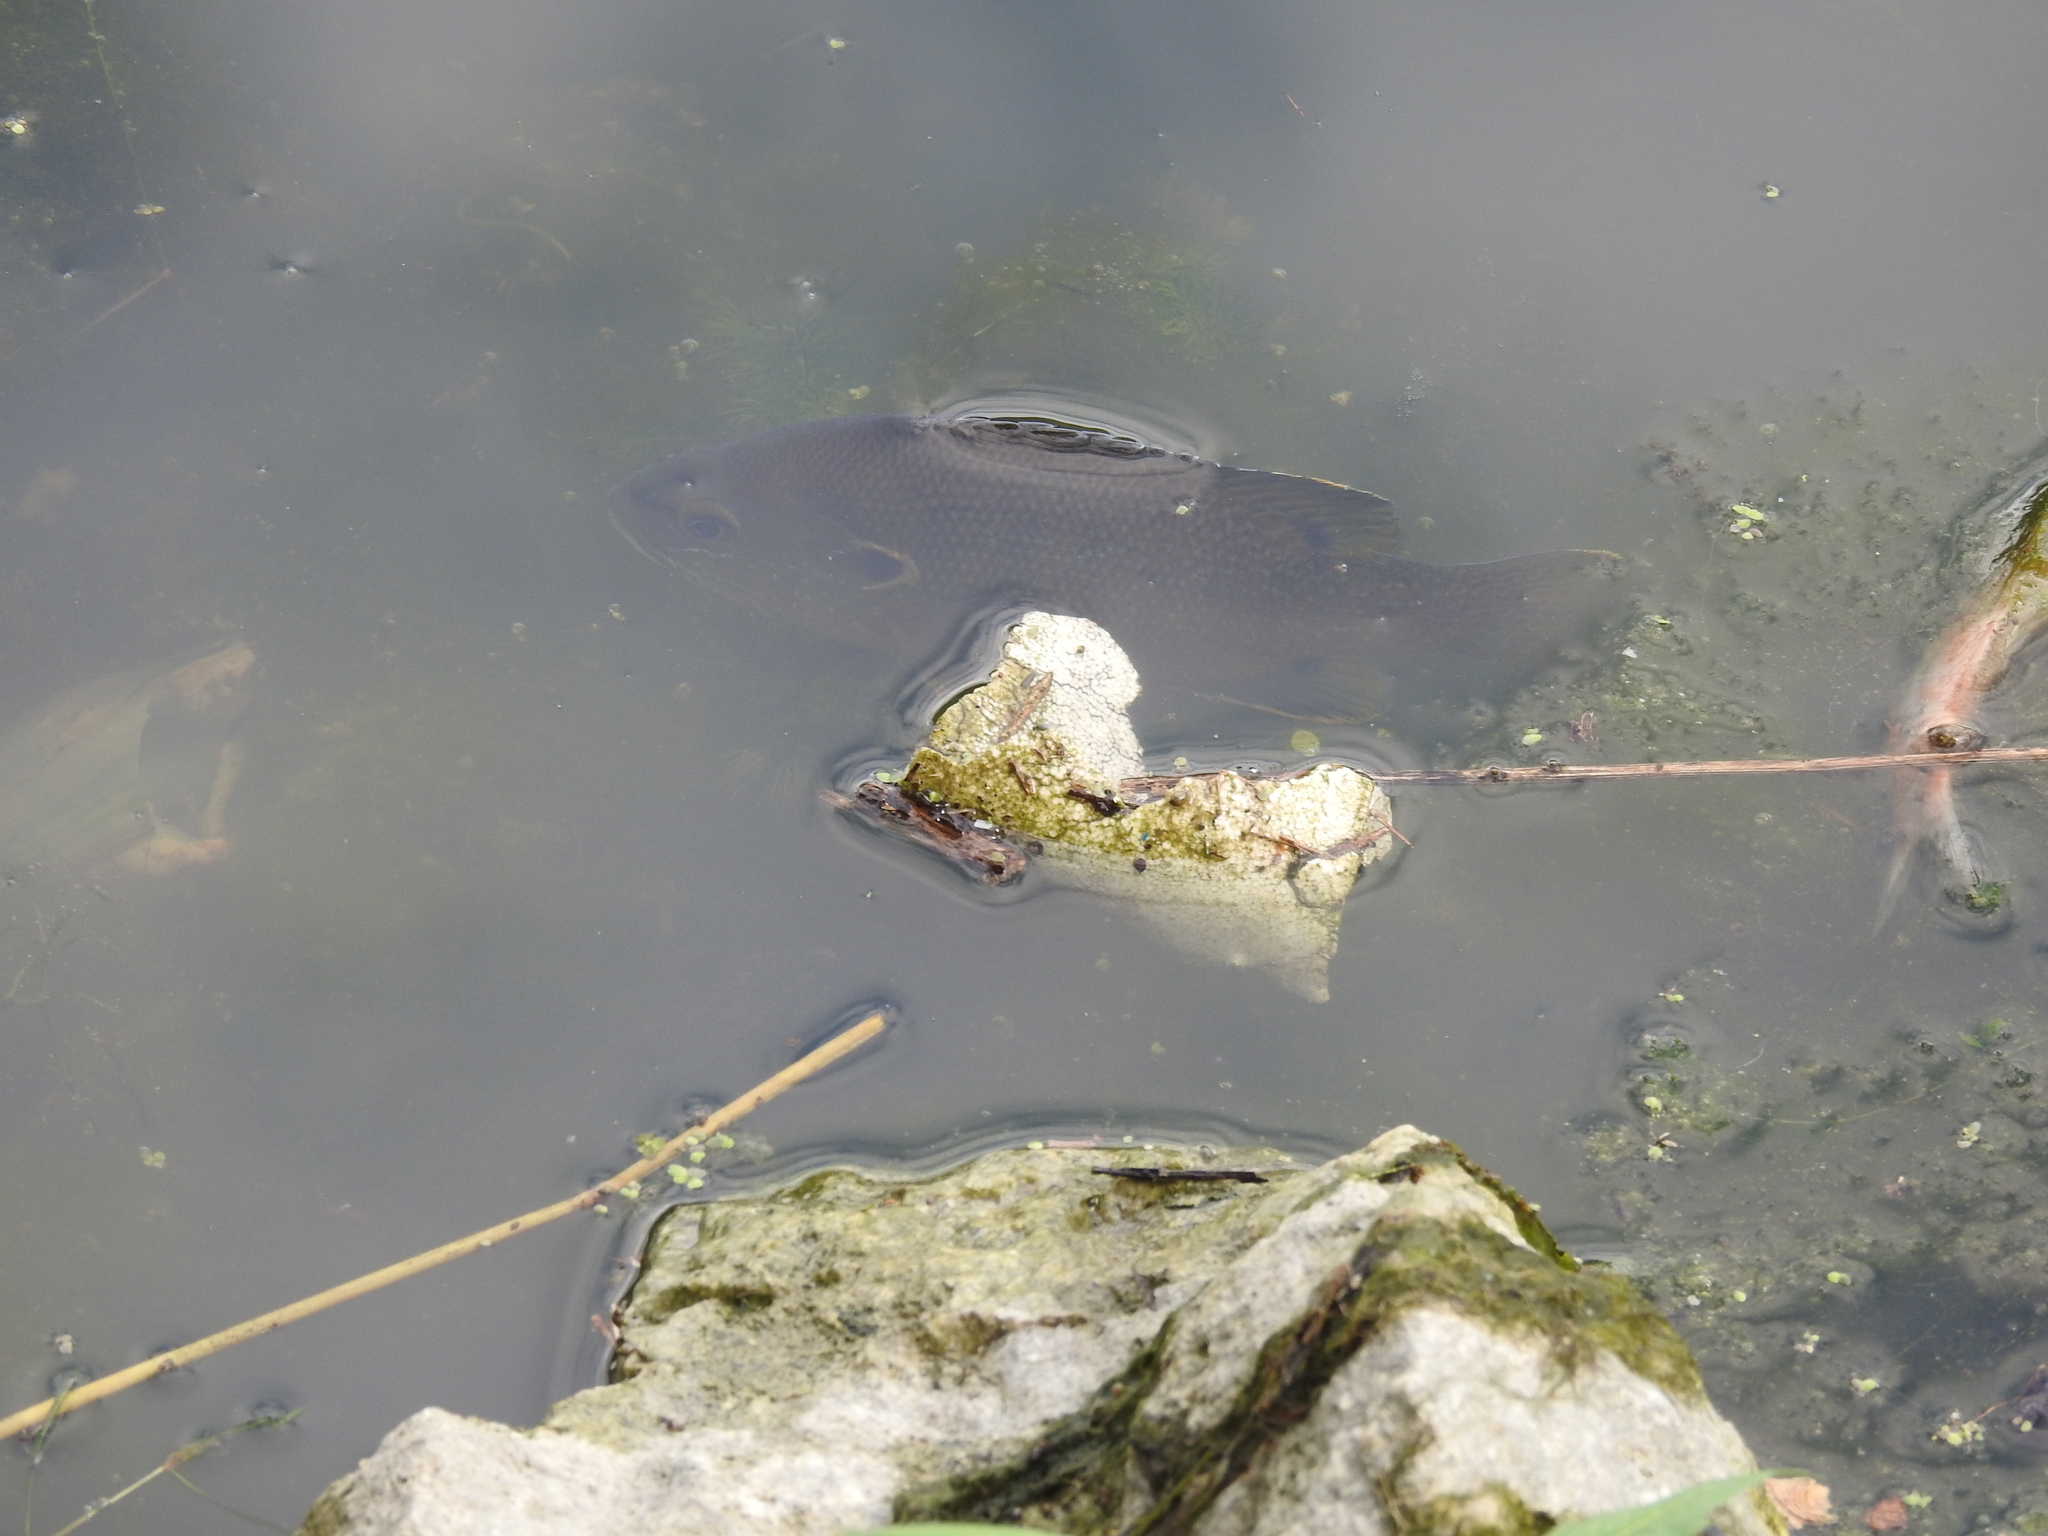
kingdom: Animalia
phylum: Chordata
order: Perciformes
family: Centrarchidae
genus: Lepomis
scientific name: Lepomis cyanellus
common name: Green sunfish
